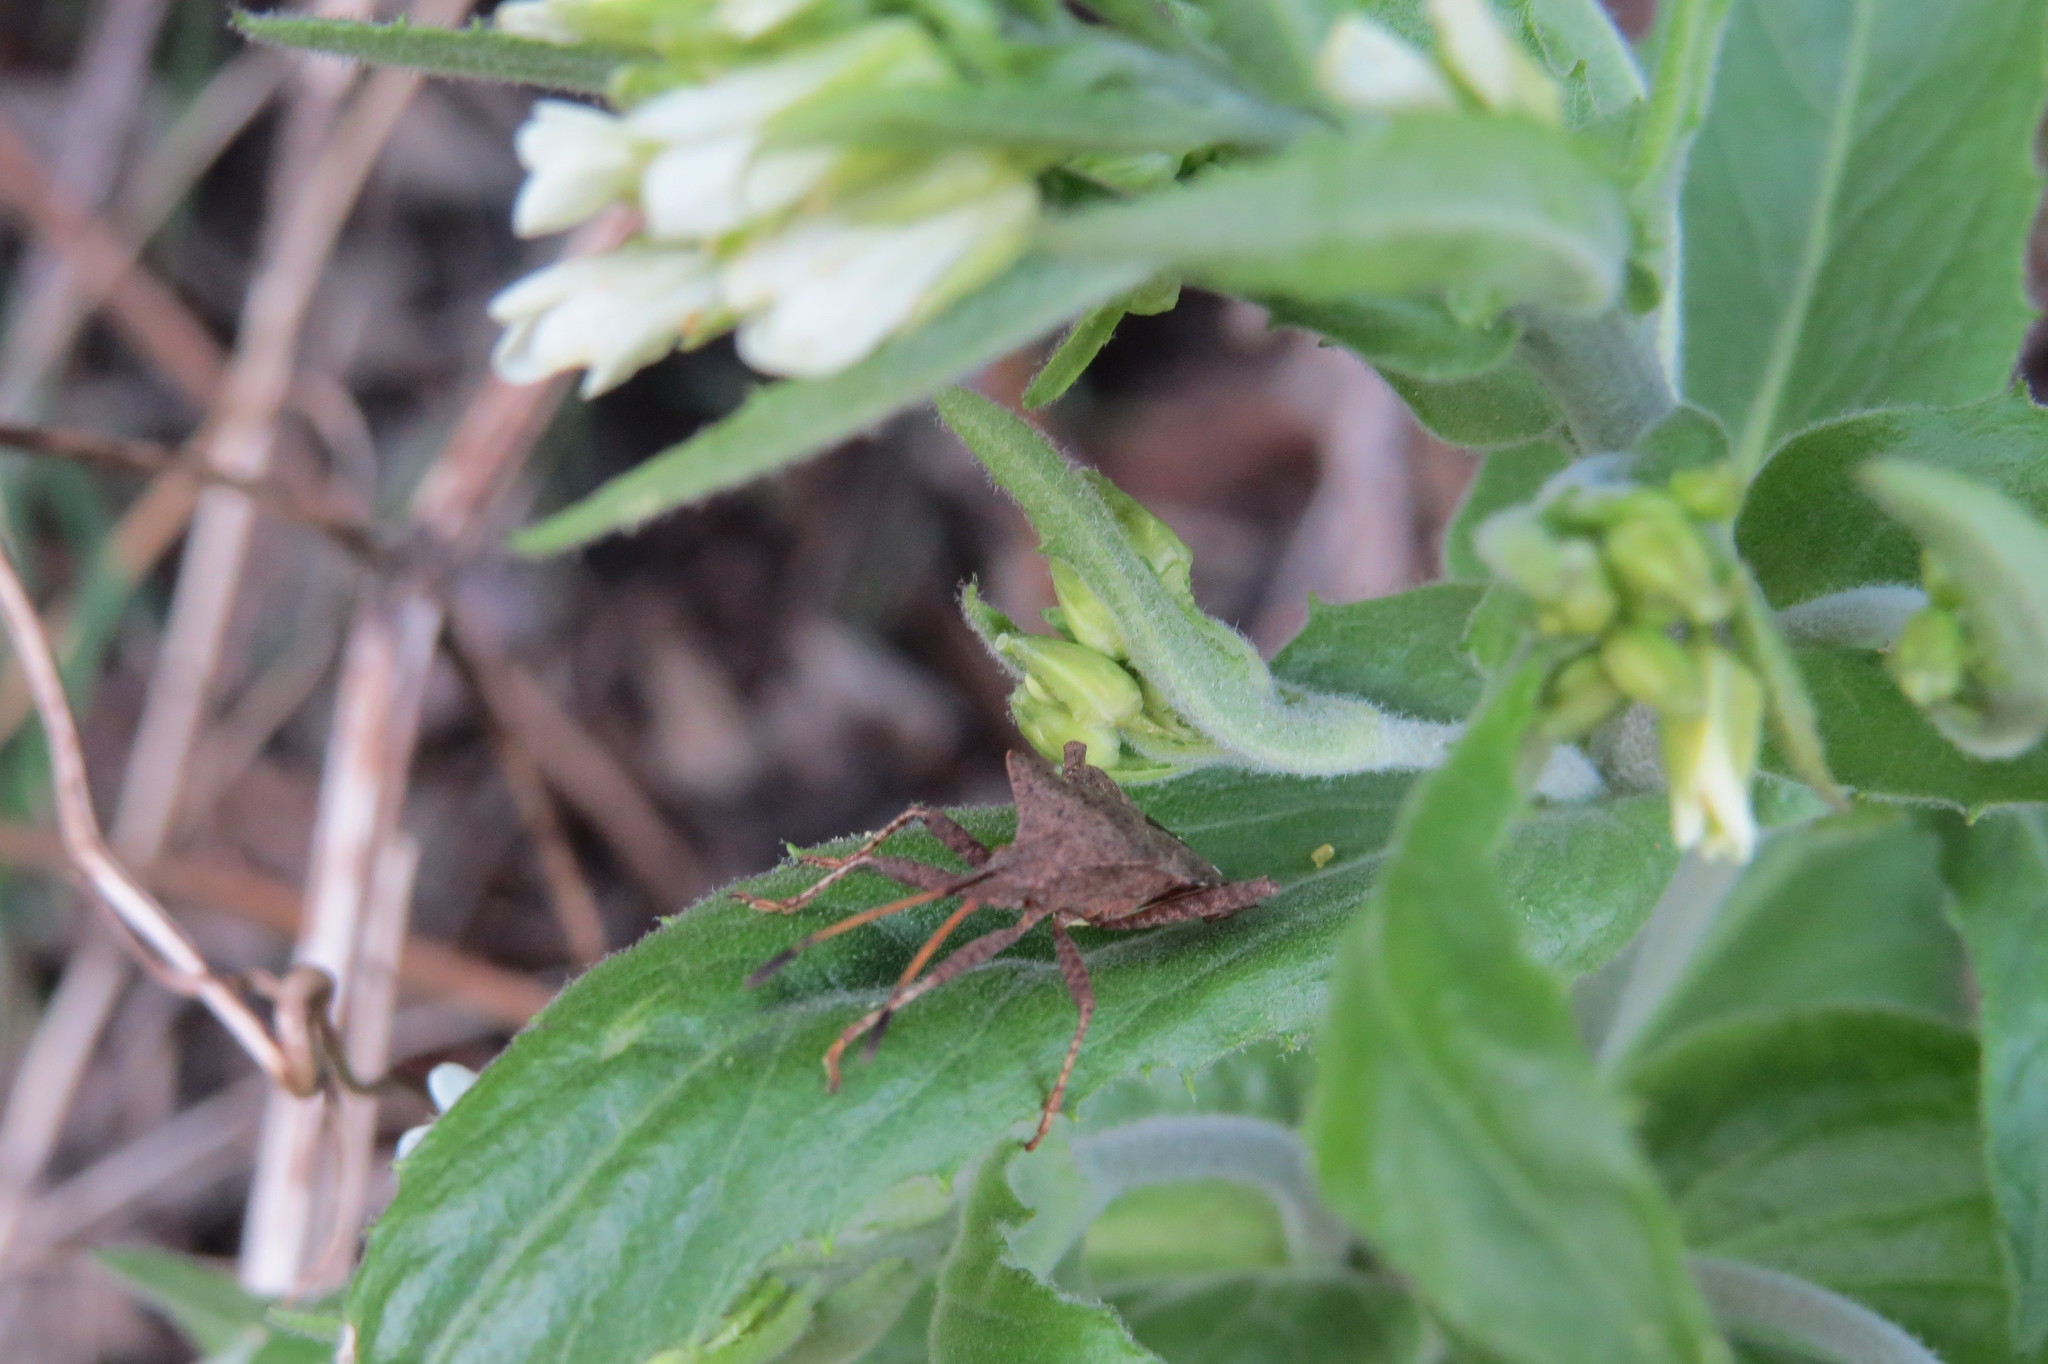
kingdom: Animalia
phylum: Arthropoda
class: Insecta
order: Hemiptera
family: Coreidae
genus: Coreus
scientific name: Coreus marginatus
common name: Dock bug
